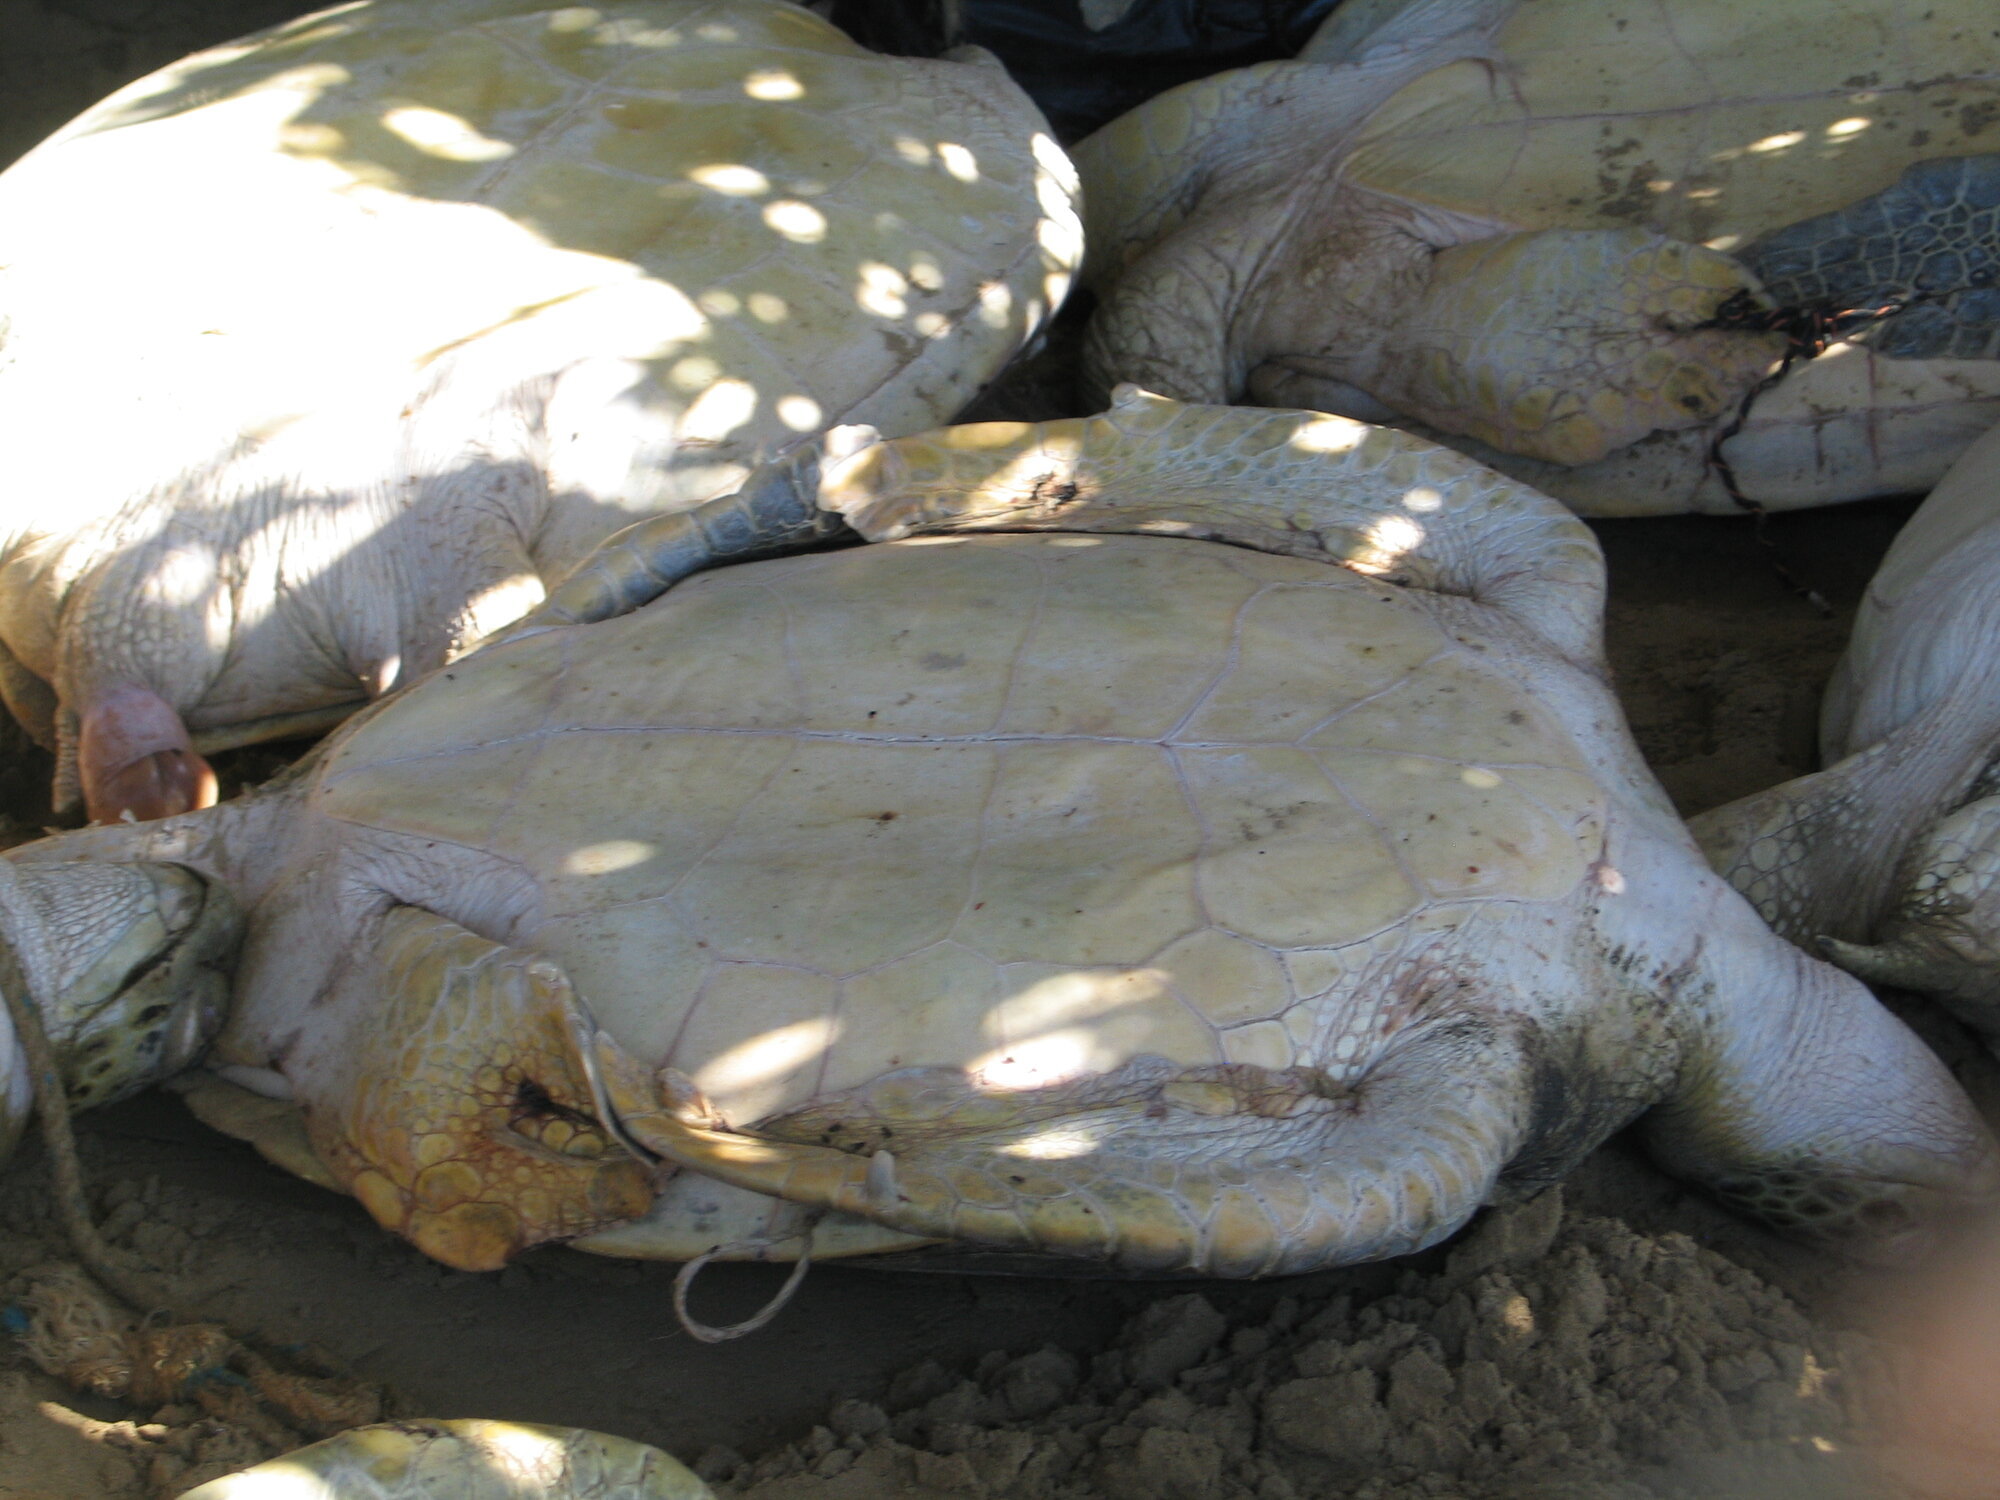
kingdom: Animalia
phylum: Chordata
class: Testudines
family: Cheloniidae
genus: Chelonia
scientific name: Chelonia mydas
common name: Green turtle
